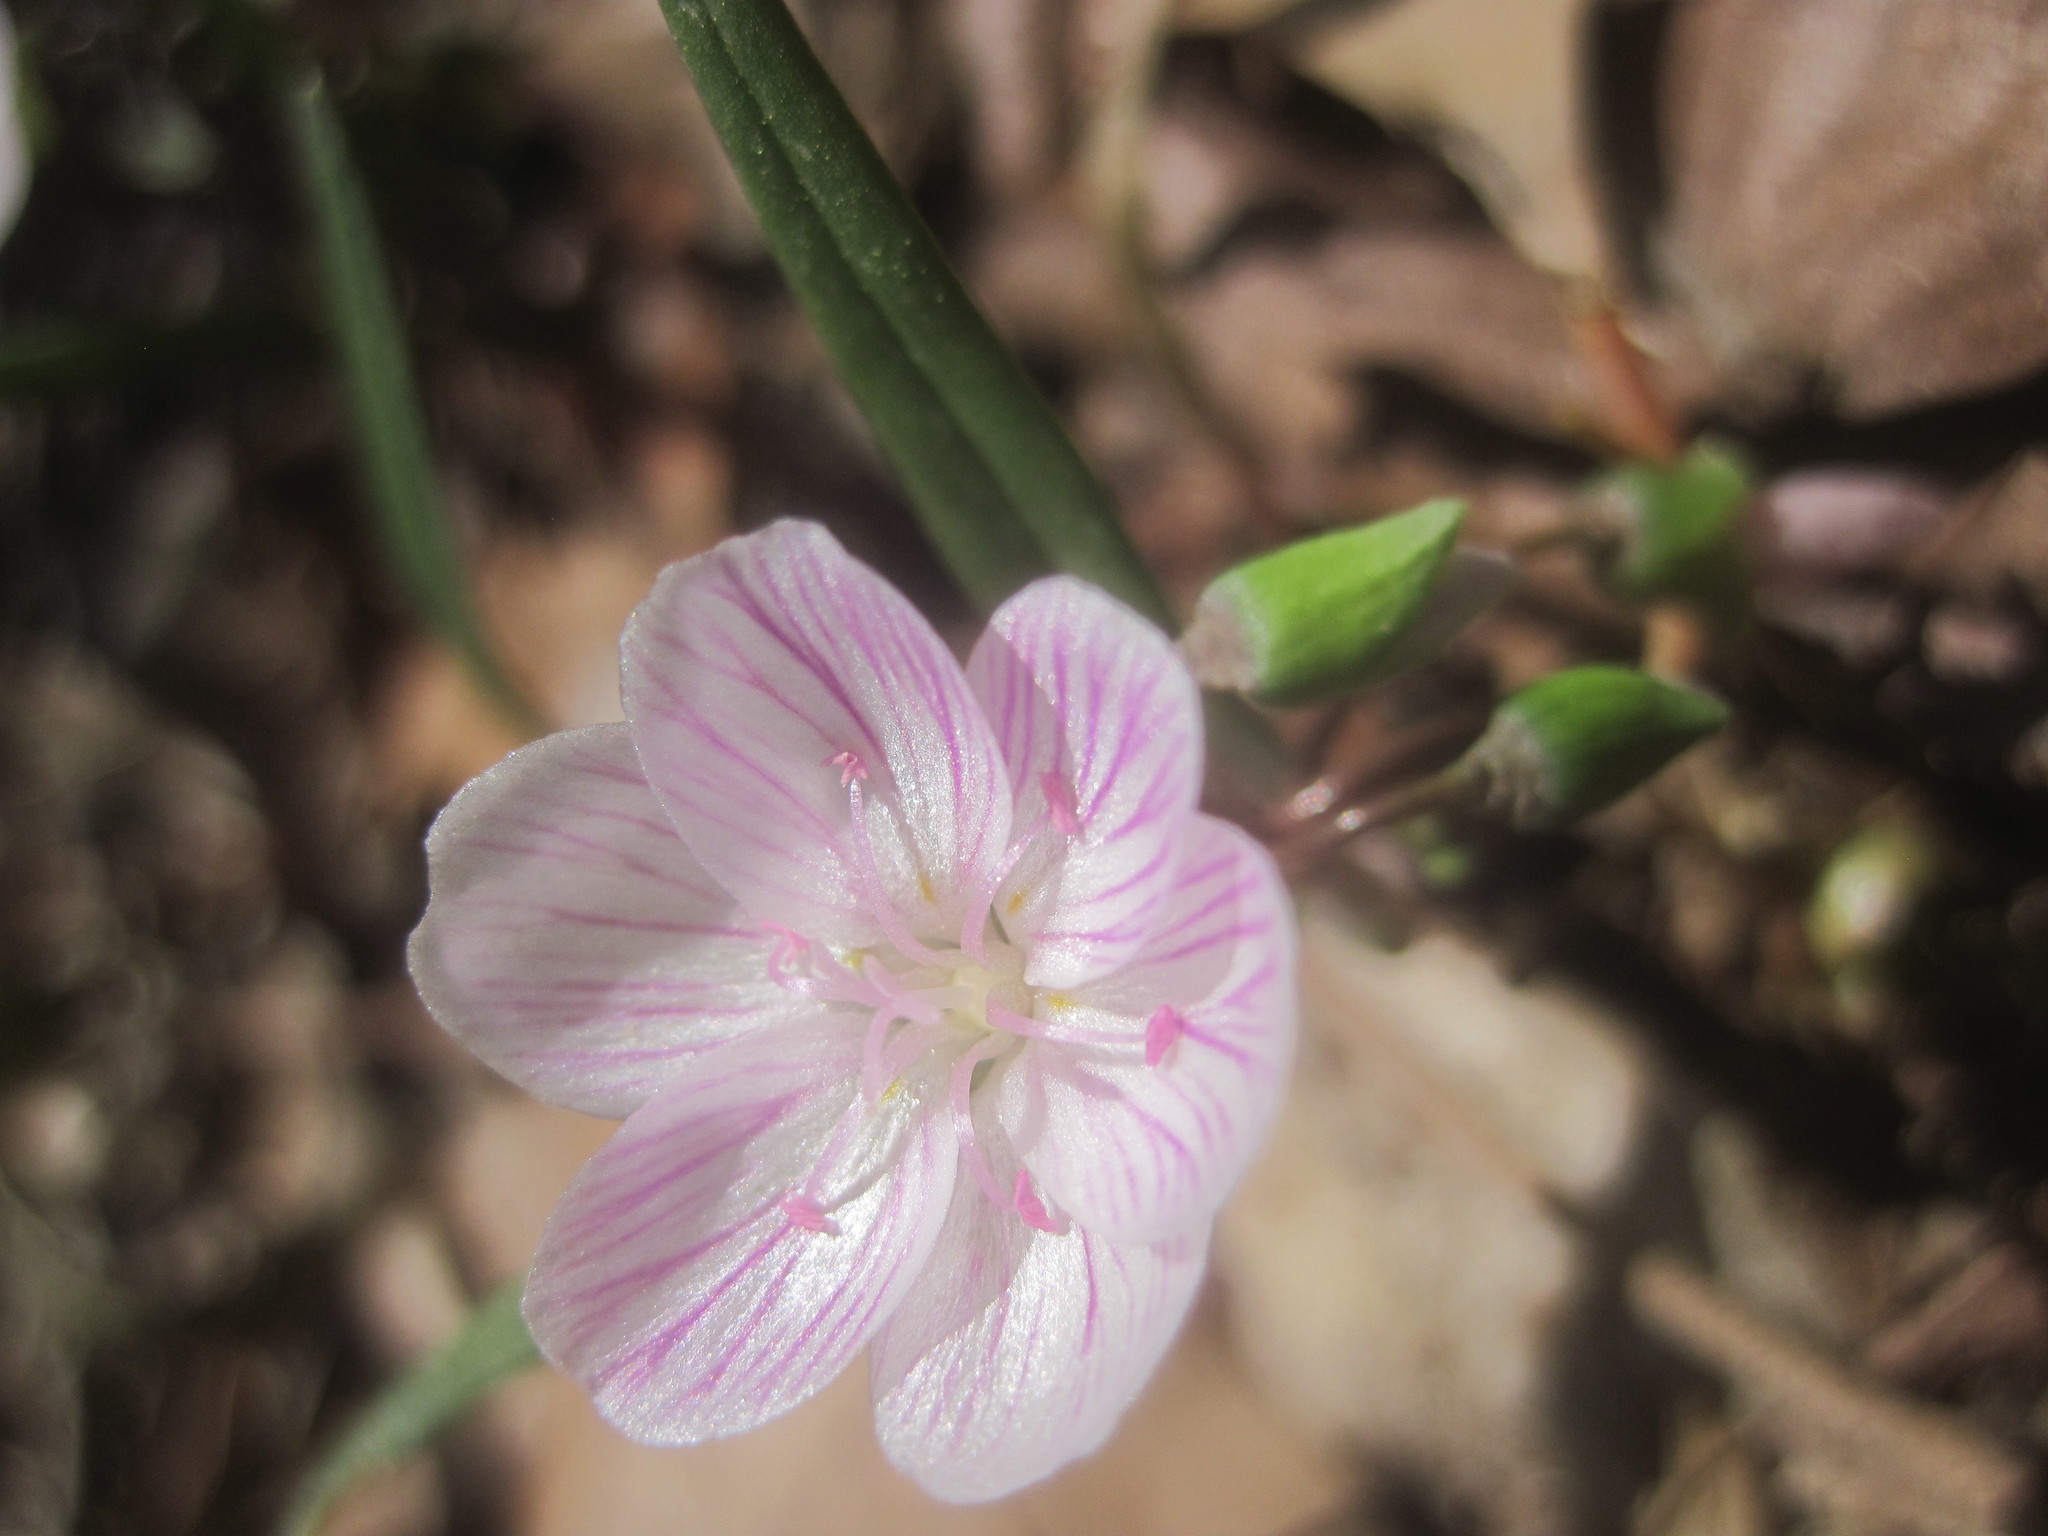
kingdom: Plantae
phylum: Tracheophyta
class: Magnoliopsida
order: Caryophyllales
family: Montiaceae
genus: Claytonia
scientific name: Claytonia virginica
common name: Virginia springbeauty
